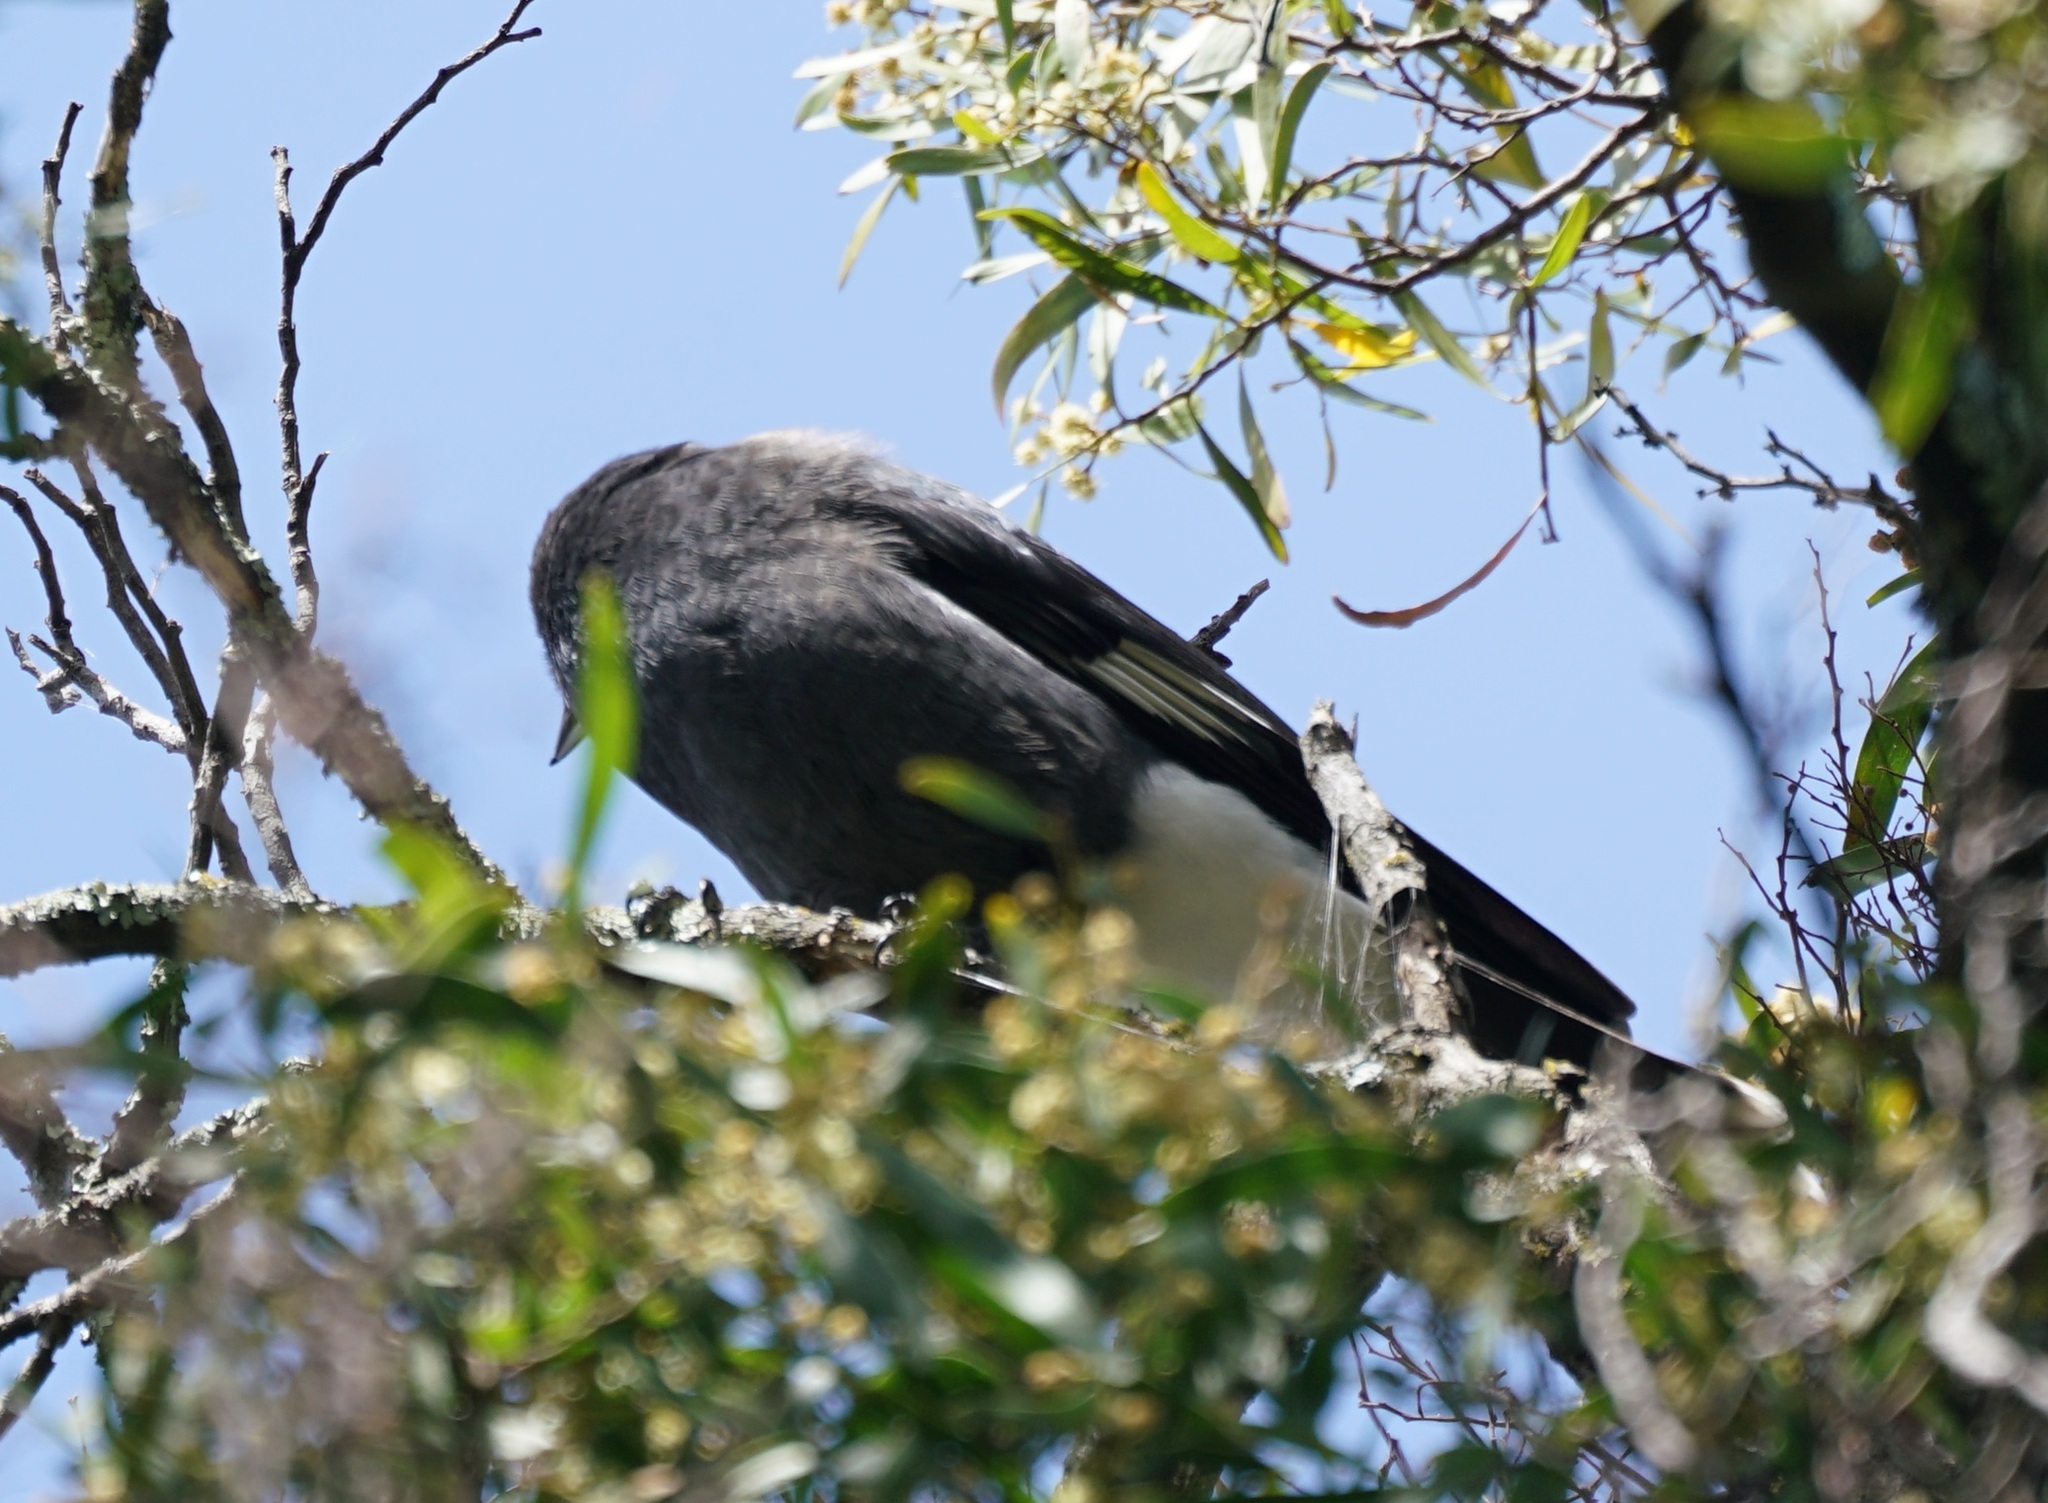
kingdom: Animalia
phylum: Chordata
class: Aves
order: Passeriformes
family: Cracticidae
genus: Strepera
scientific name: Strepera graculina
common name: Pied currawong
